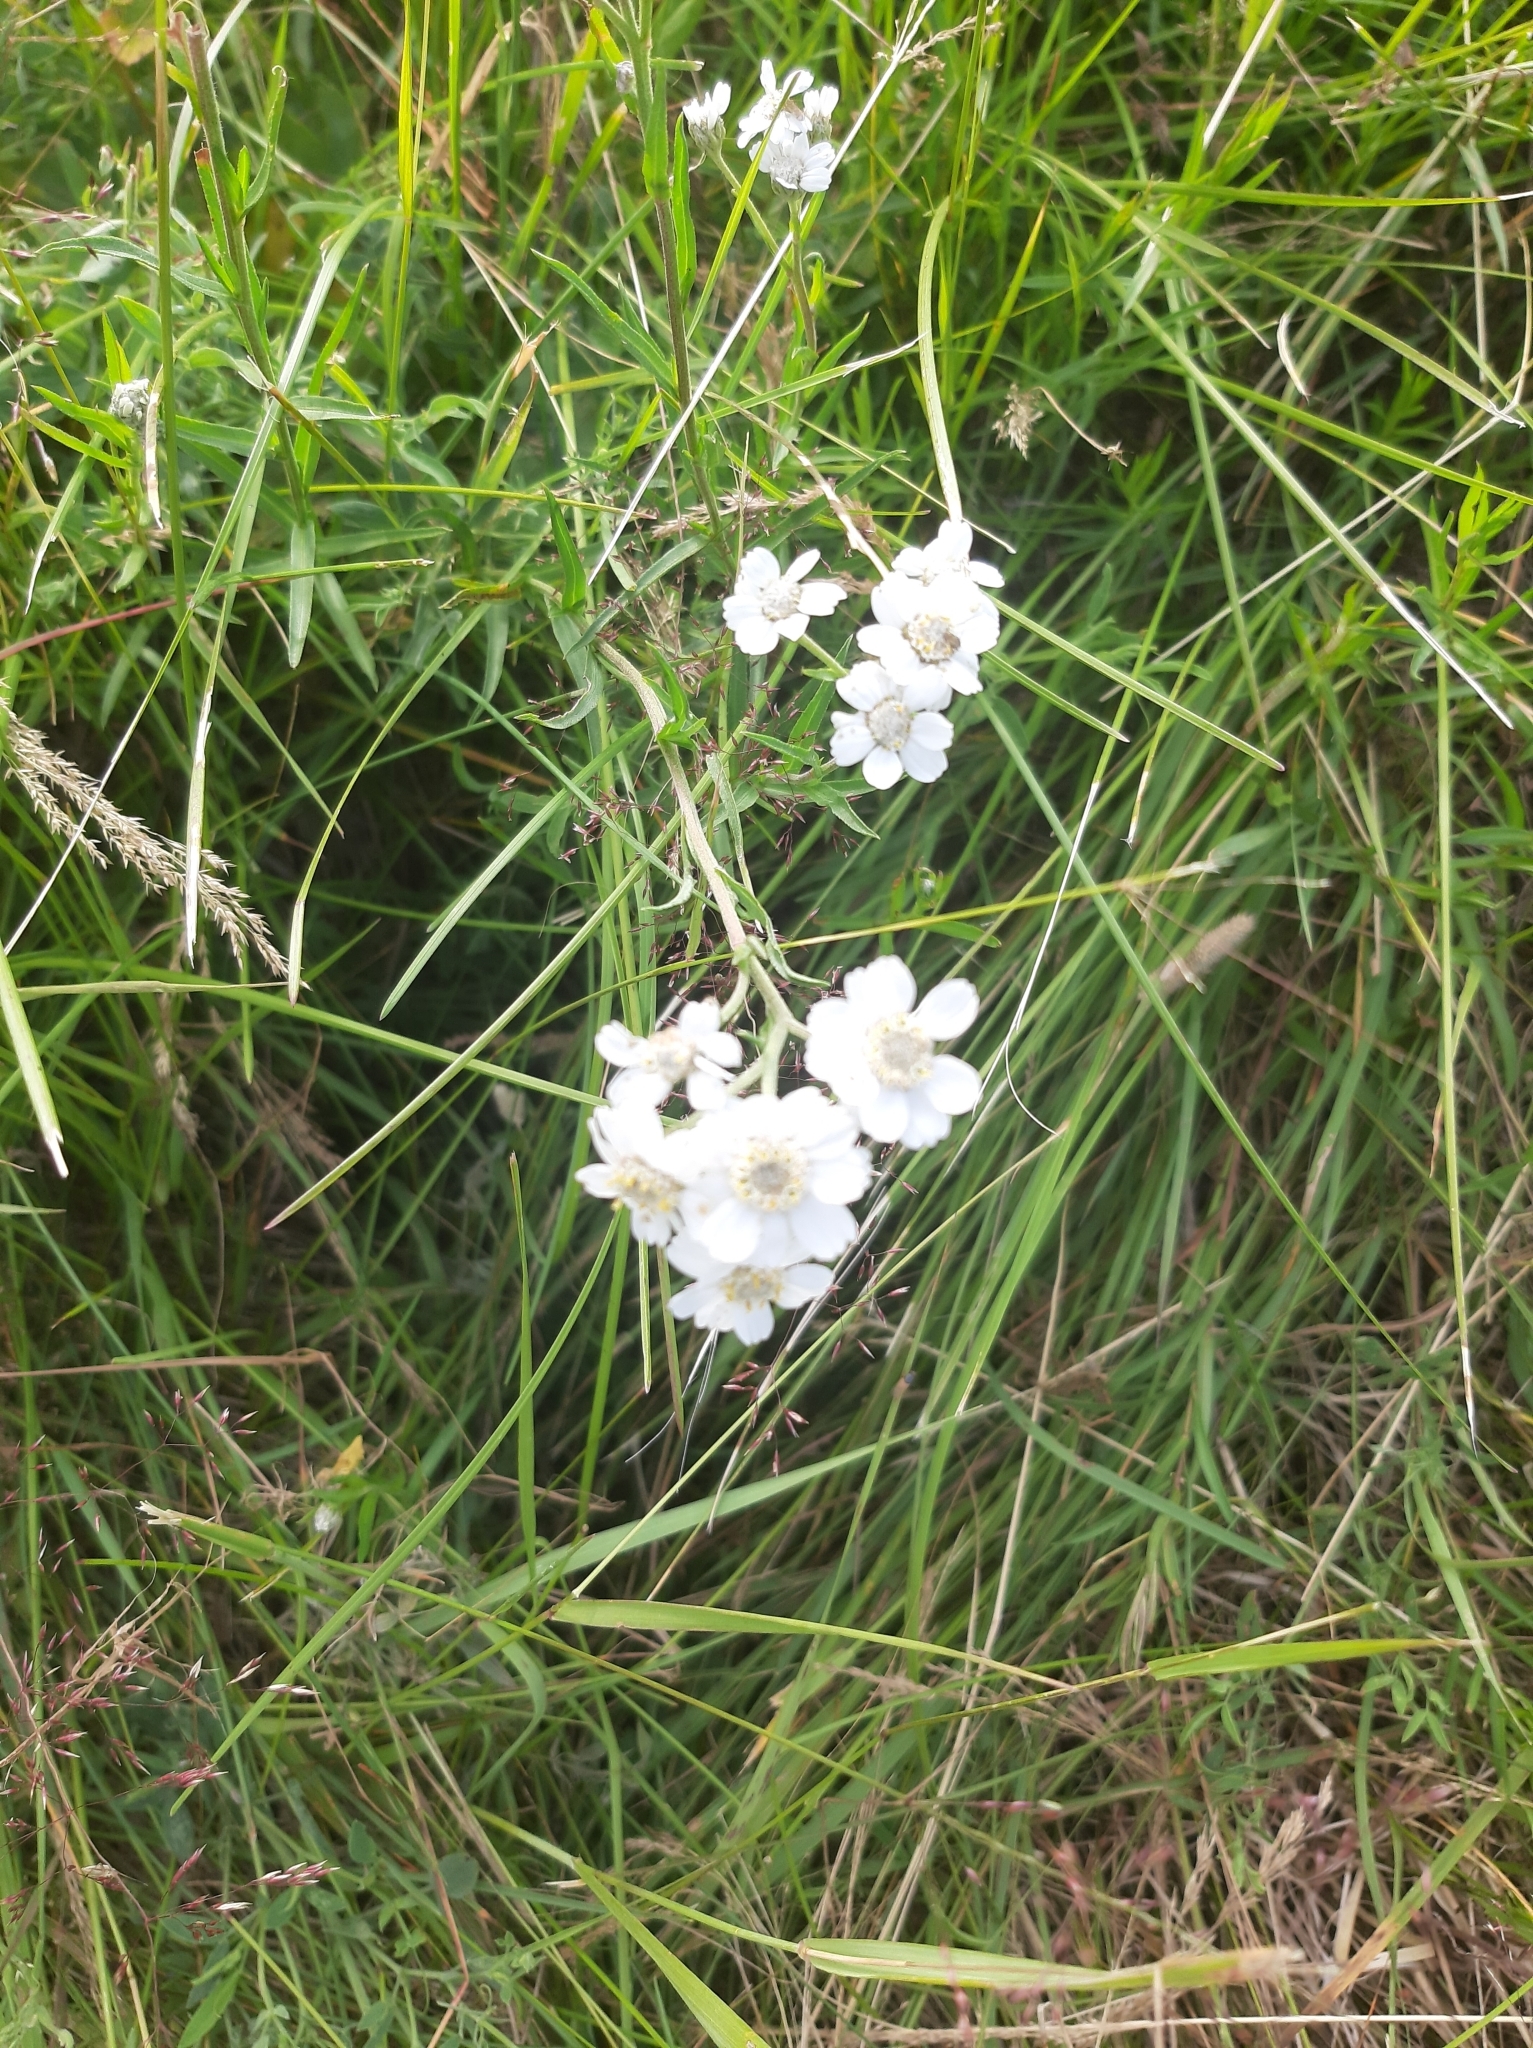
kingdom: Plantae
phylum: Tracheophyta
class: Magnoliopsida
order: Asterales
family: Asteraceae
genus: Achillea
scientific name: Achillea ptarmica
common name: Sneezeweed
